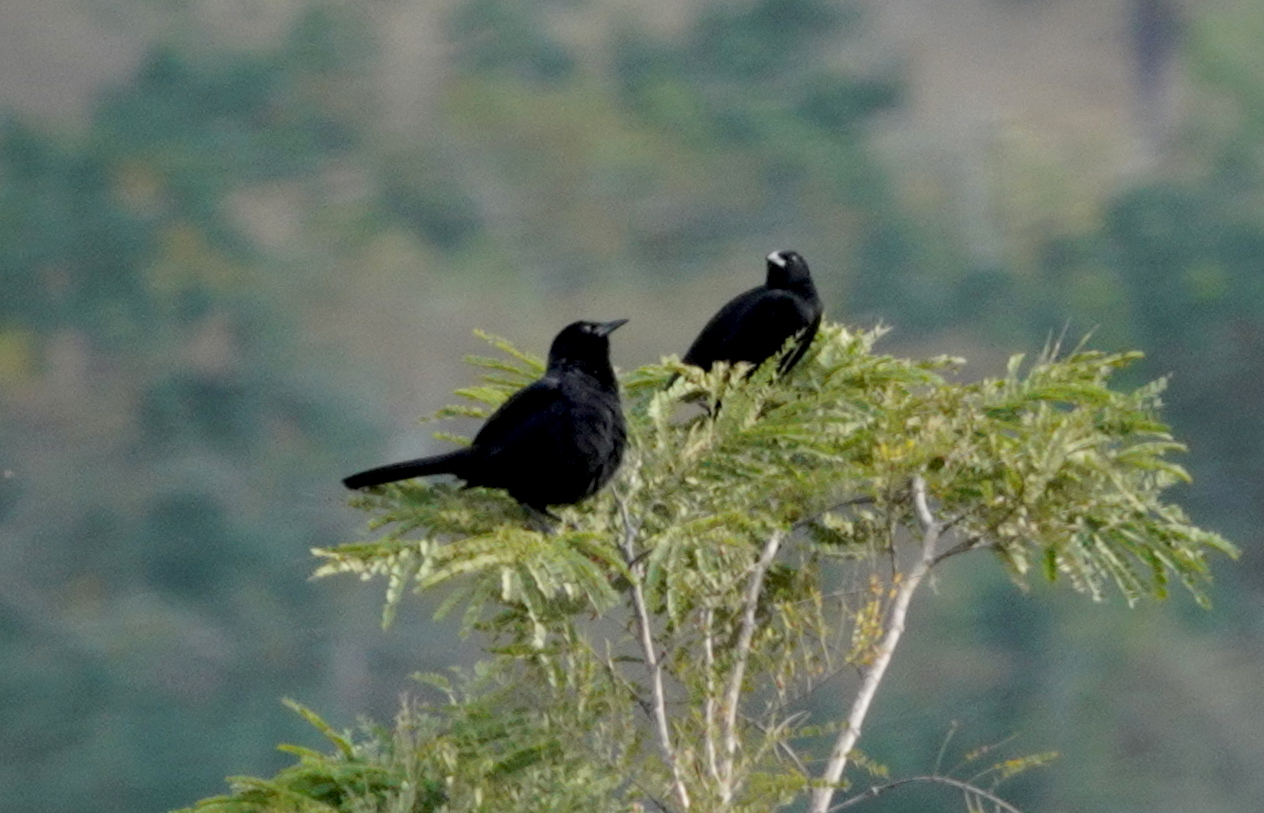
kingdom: Animalia
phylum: Chordata
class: Aves
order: Passeriformes
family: Icteridae
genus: Dives
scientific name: Dives dives
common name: Melodious blackbird
